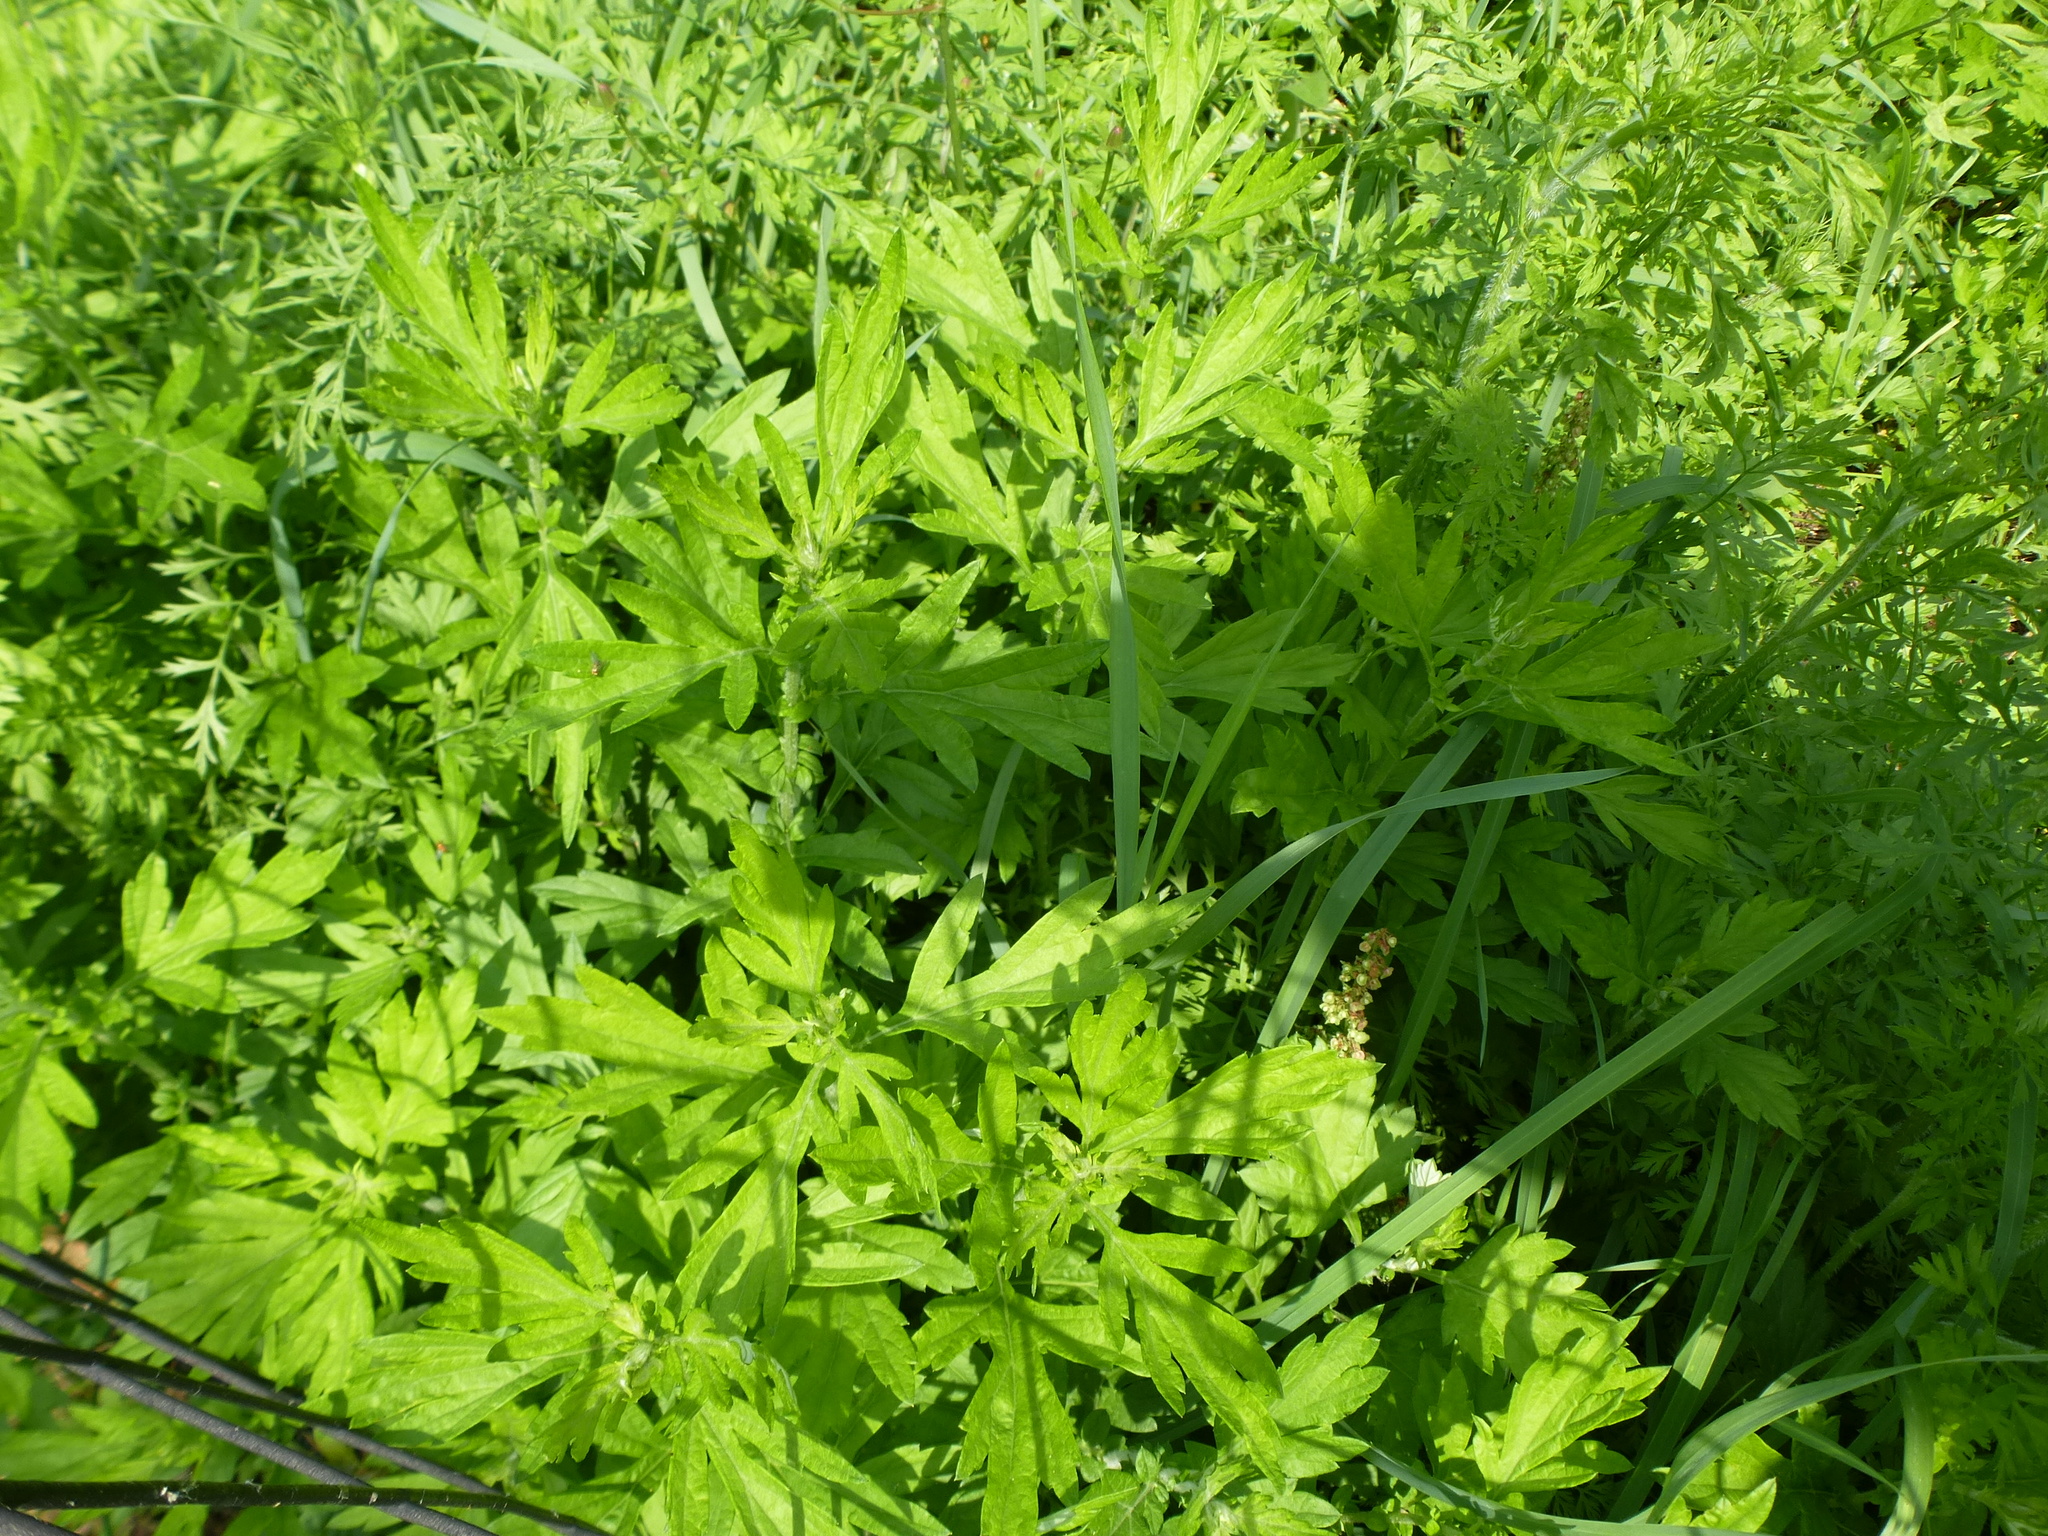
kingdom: Plantae
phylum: Tracheophyta
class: Magnoliopsida
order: Asterales
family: Asteraceae
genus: Artemisia
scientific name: Artemisia vulgaris
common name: Mugwort
